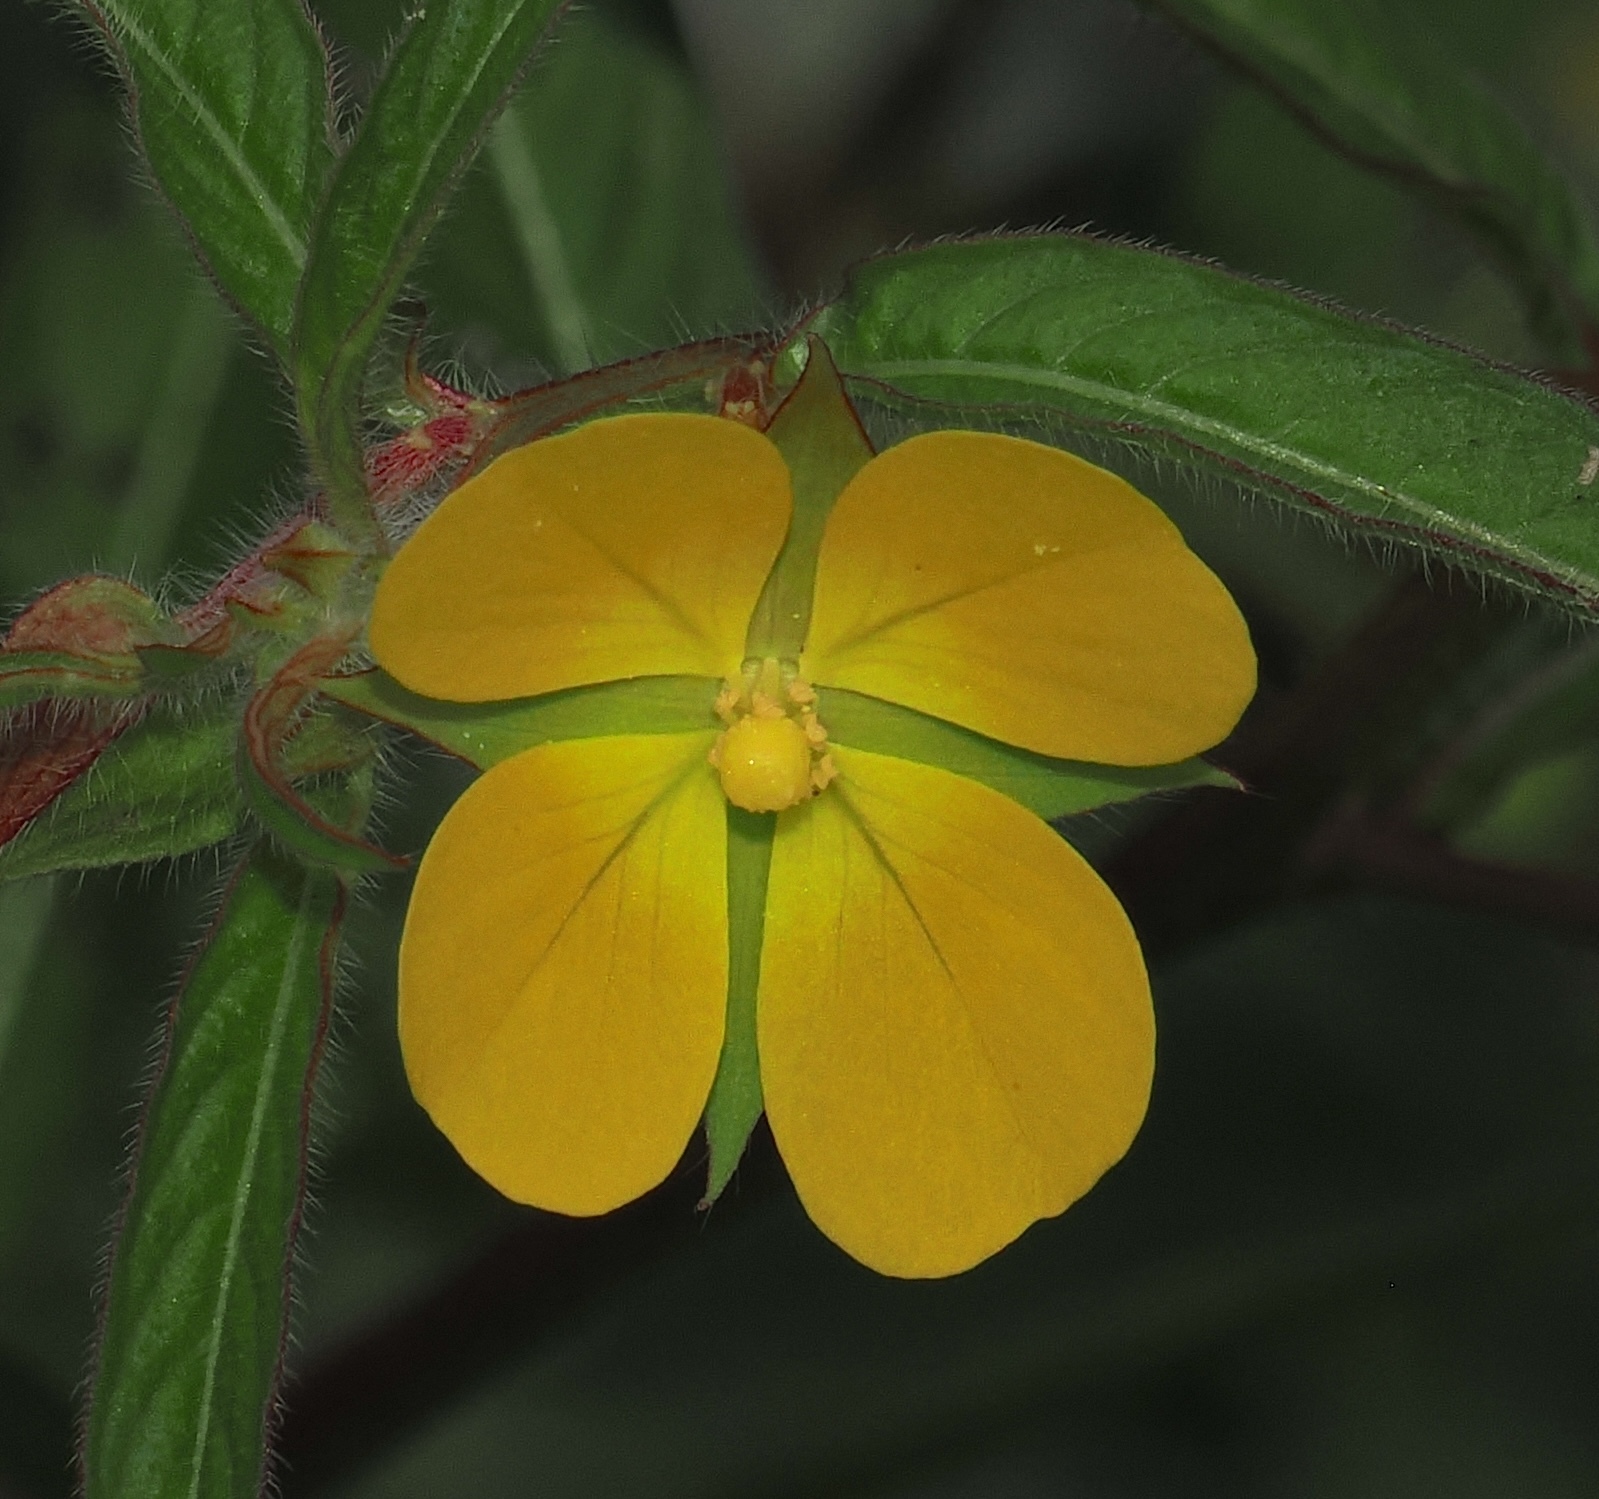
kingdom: Plantae
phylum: Tracheophyta
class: Magnoliopsida
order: Myrtales
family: Onagraceae
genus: Ludwigia
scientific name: Ludwigia leptocarpa
